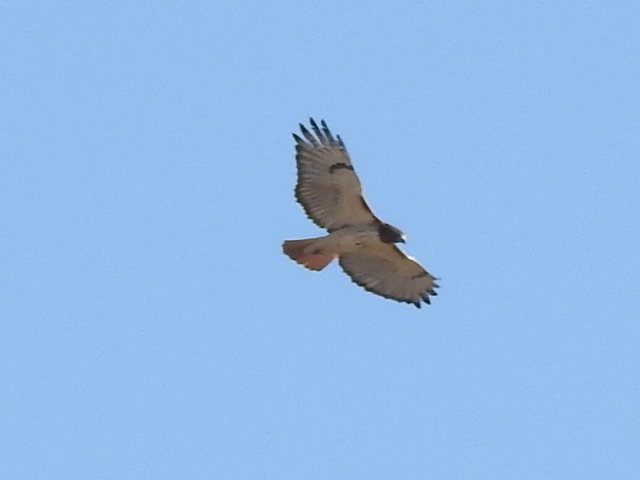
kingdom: Animalia
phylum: Chordata
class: Aves
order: Accipitriformes
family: Accipitridae
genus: Buteo
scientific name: Buteo jamaicensis
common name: Red-tailed hawk
